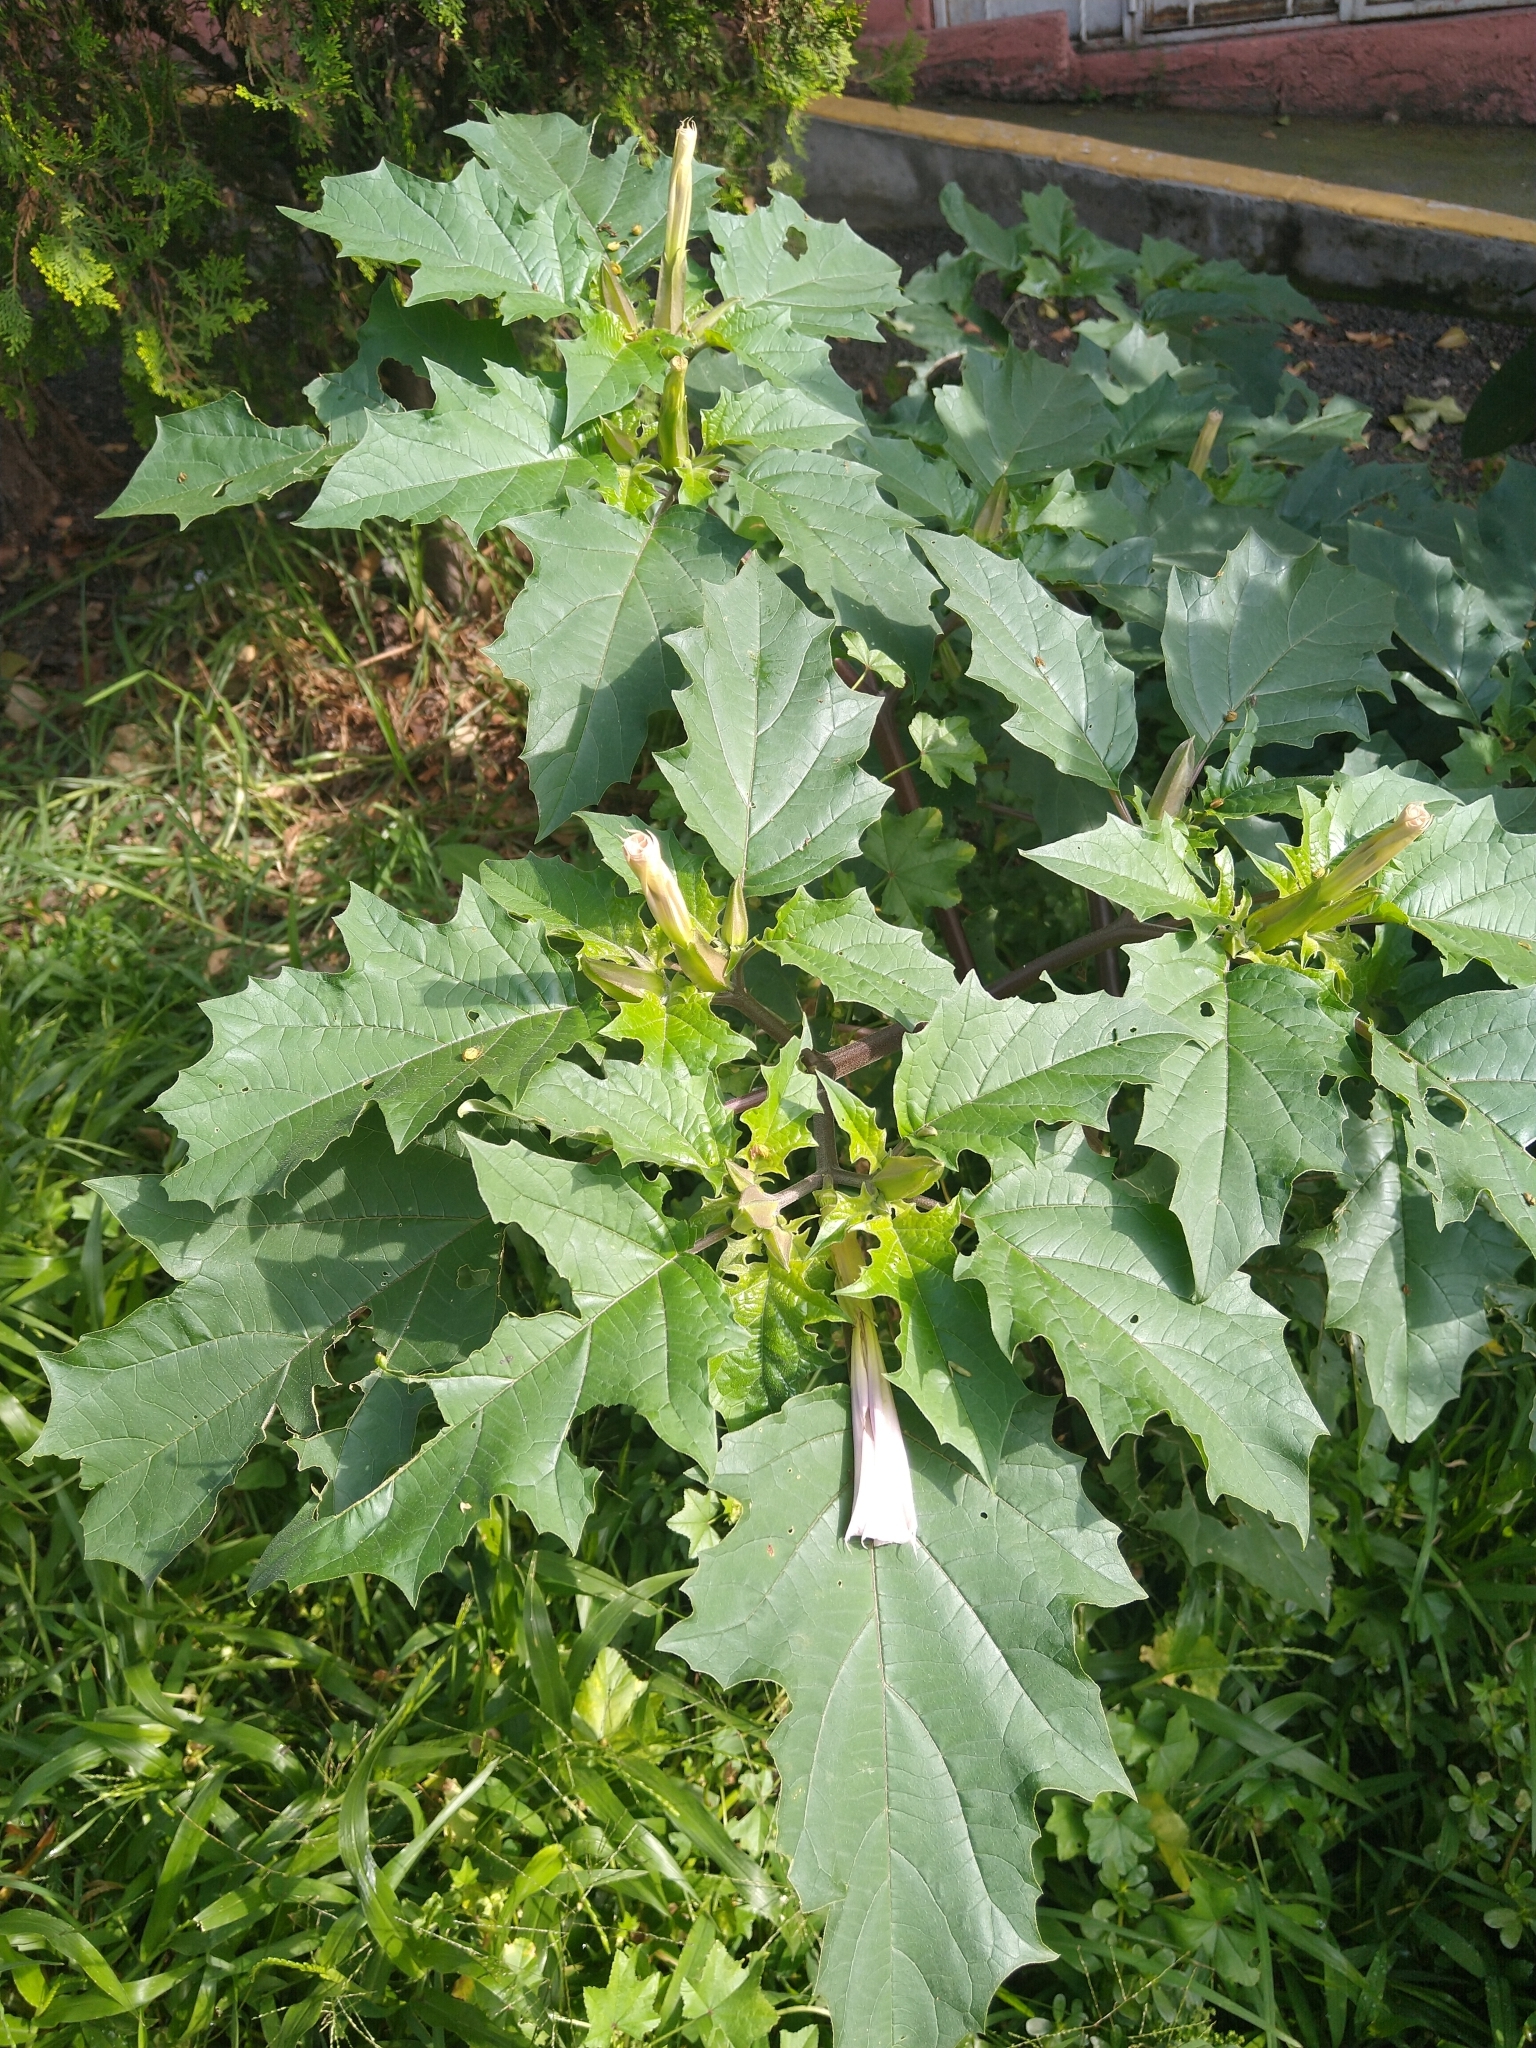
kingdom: Plantae
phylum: Tracheophyta
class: Magnoliopsida
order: Solanales
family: Solanaceae
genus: Datura
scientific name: Datura stramonium
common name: Thorn-apple
